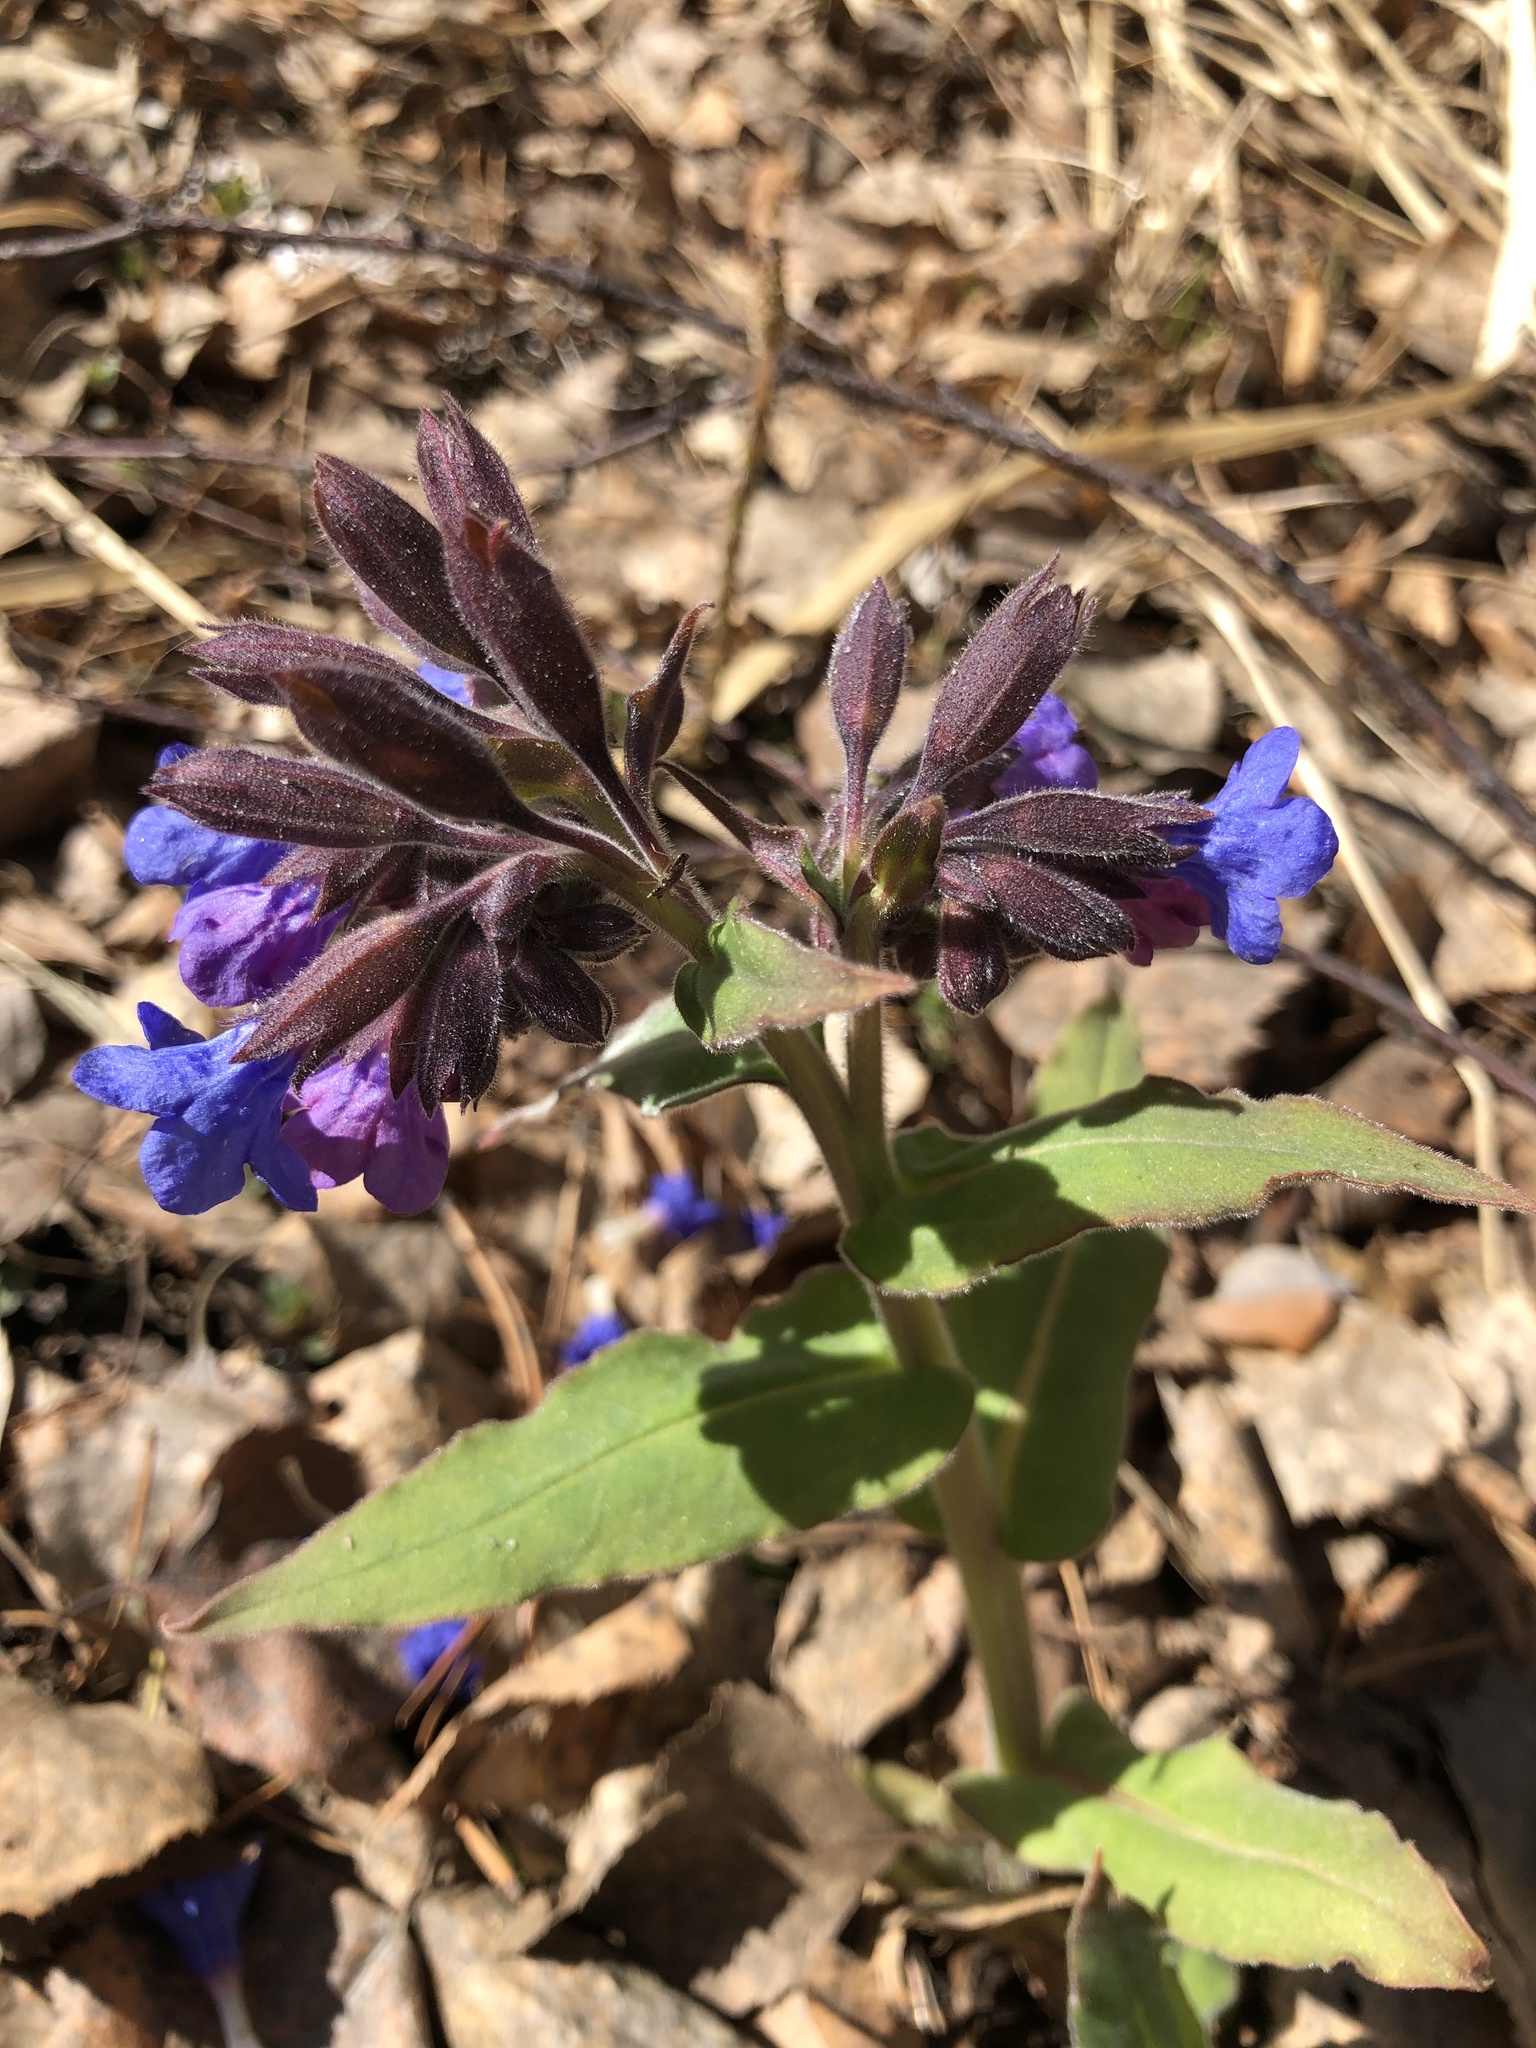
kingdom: Plantae
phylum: Tracheophyta
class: Magnoliopsida
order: Boraginales
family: Boraginaceae
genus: Pulmonaria
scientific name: Pulmonaria mollis
